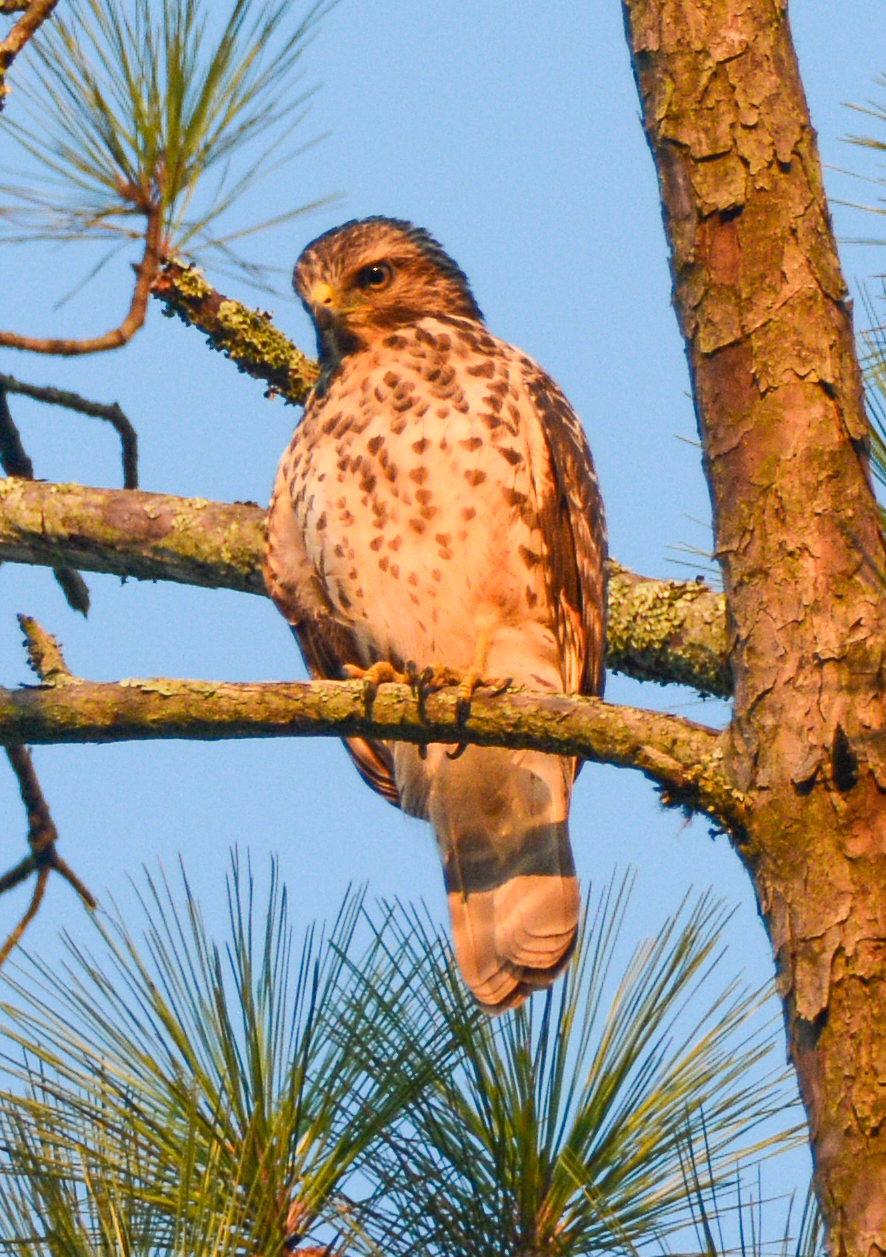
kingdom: Animalia
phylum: Chordata
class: Aves
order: Accipitriformes
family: Accipitridae
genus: Buteo
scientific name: Buteo lineatus
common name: Red-shouldered hawk
